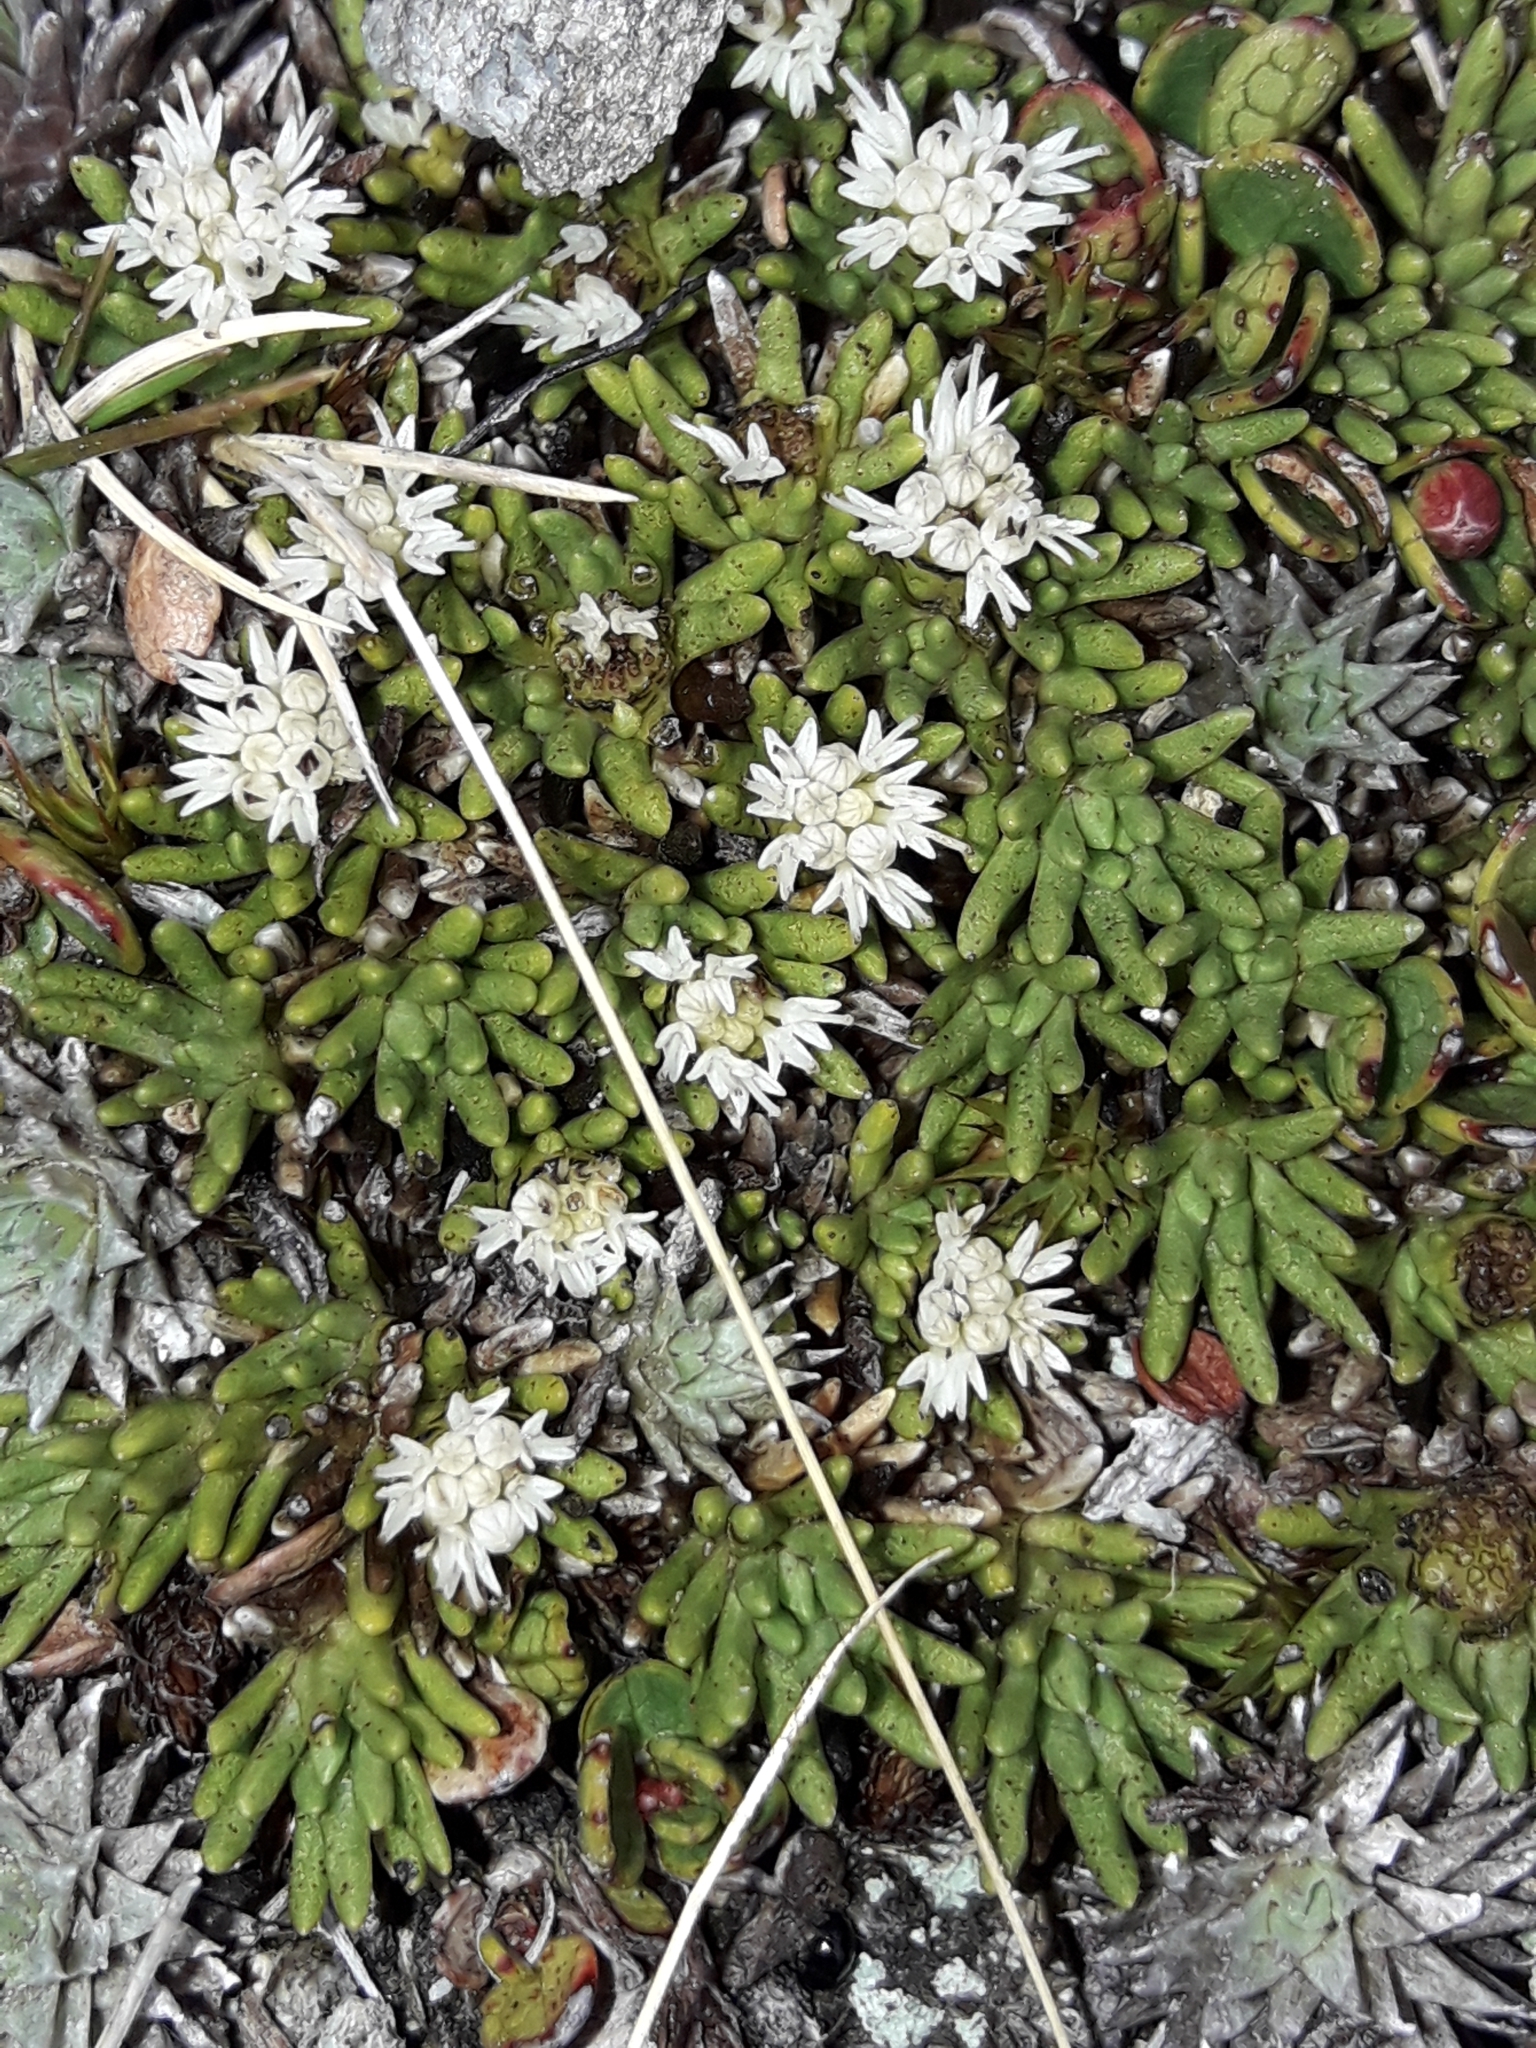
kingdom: Plantae
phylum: Tracheophyta
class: Magnoliopsida
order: Asterales
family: Asteraceae
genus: Abrotanella
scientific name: Abrotanella inconspicua
